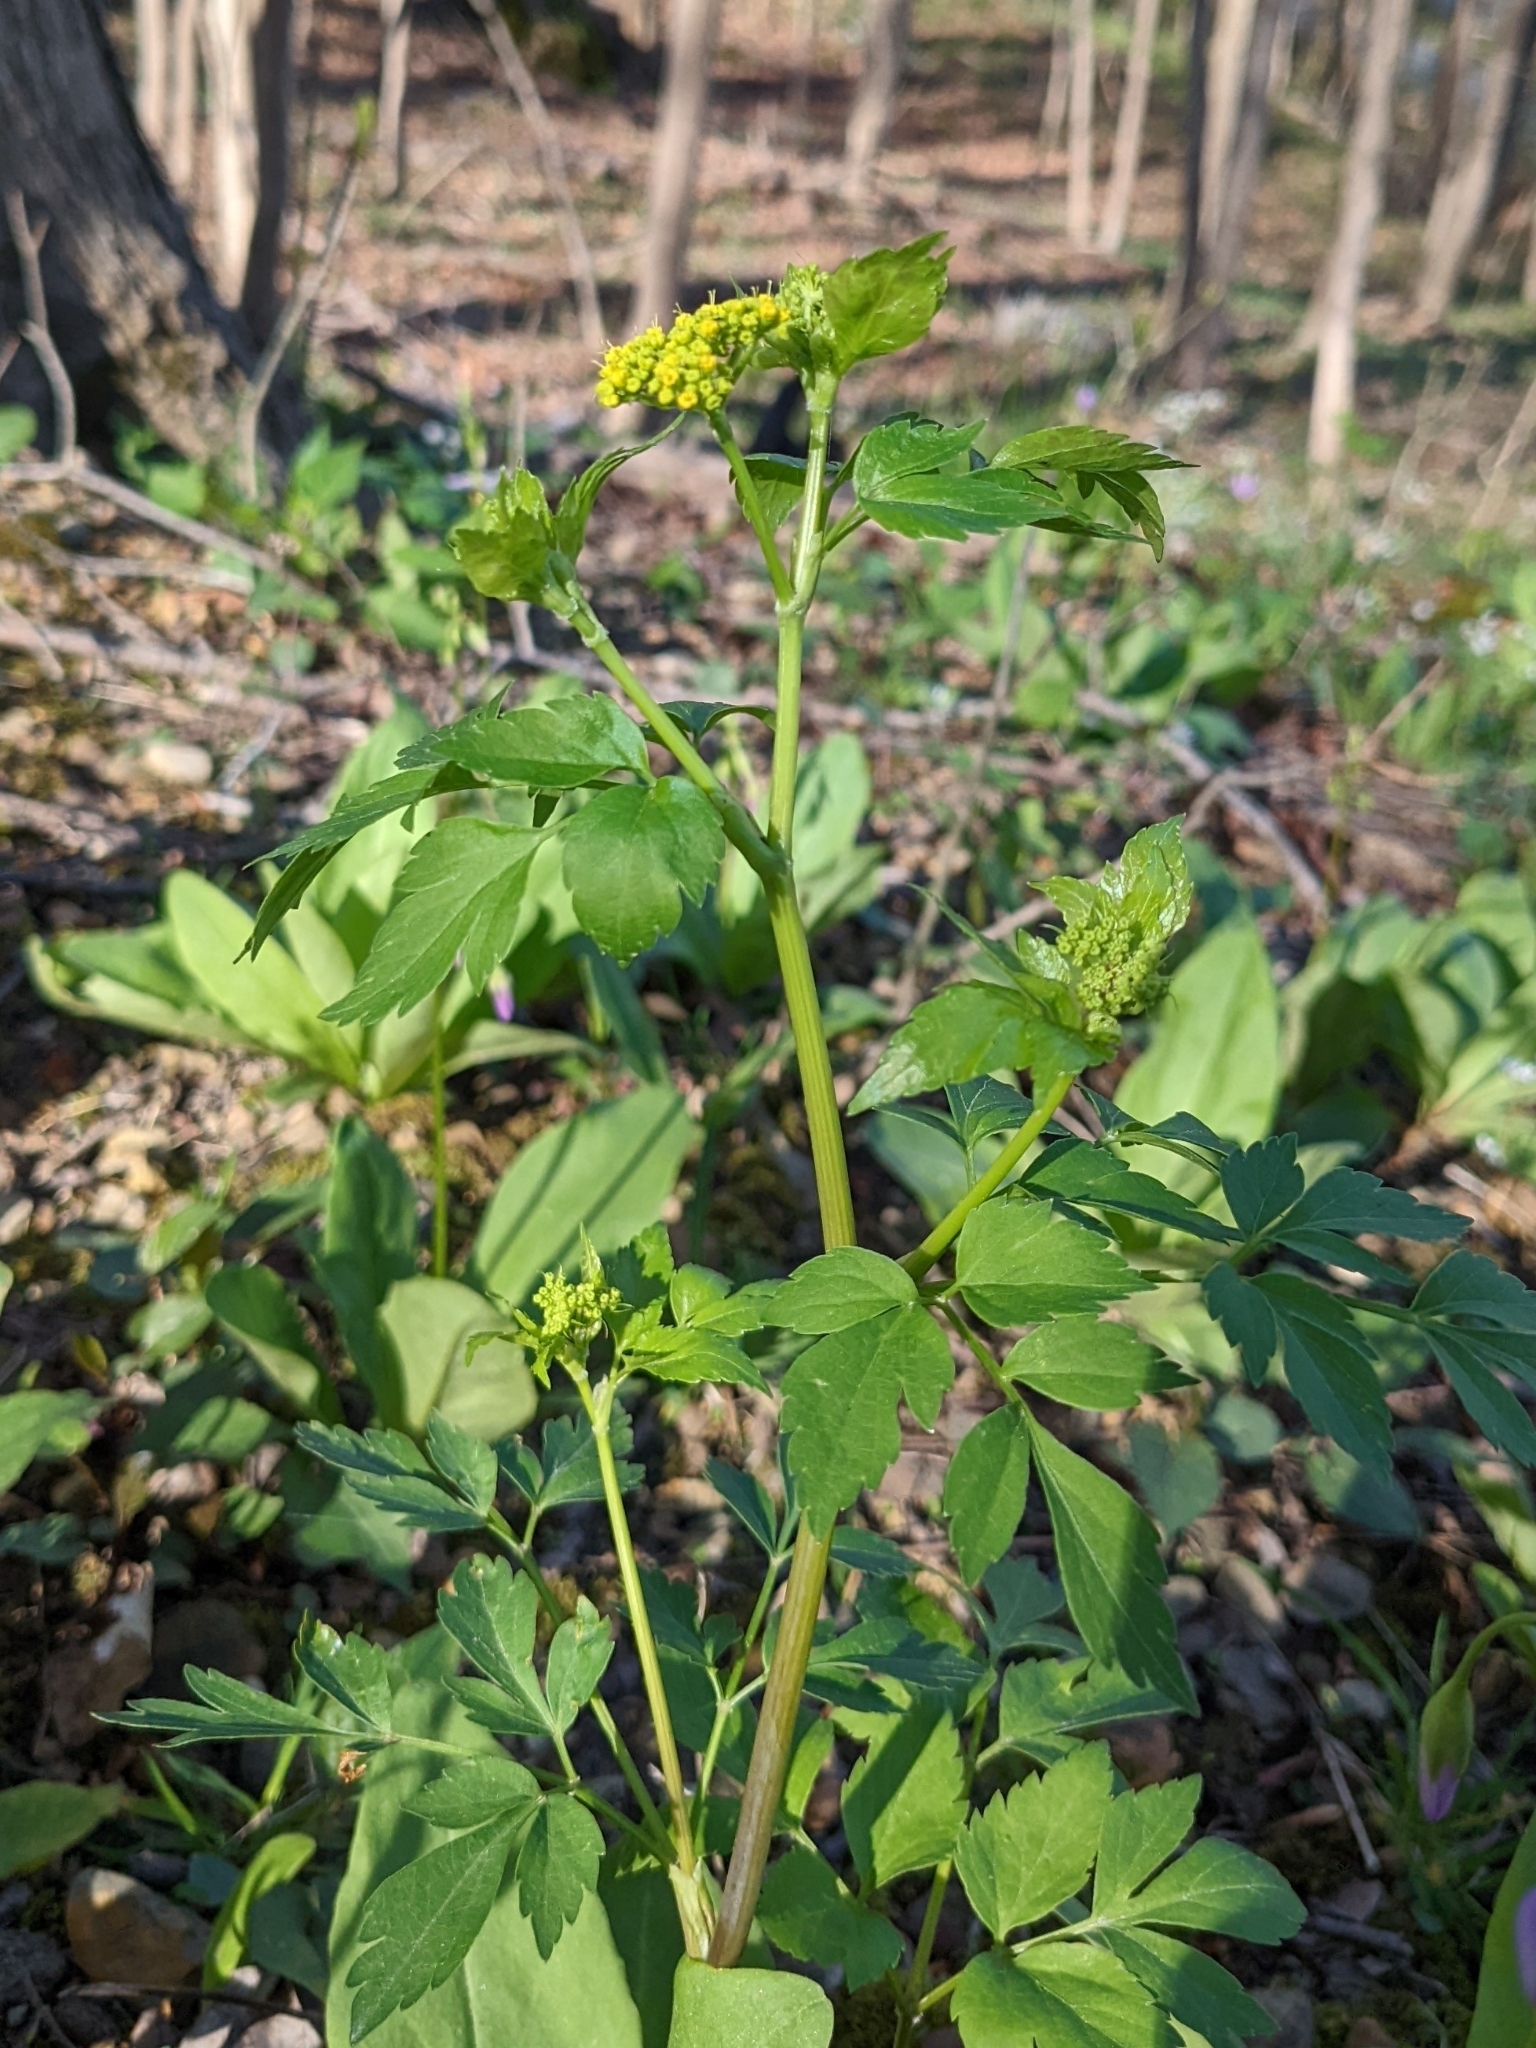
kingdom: Plantae
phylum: Tracheophyta
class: Magnoliopsida
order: Apiales
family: Apiaceae
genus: Zizia
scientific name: Zizia aurea
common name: Golden alexanders
